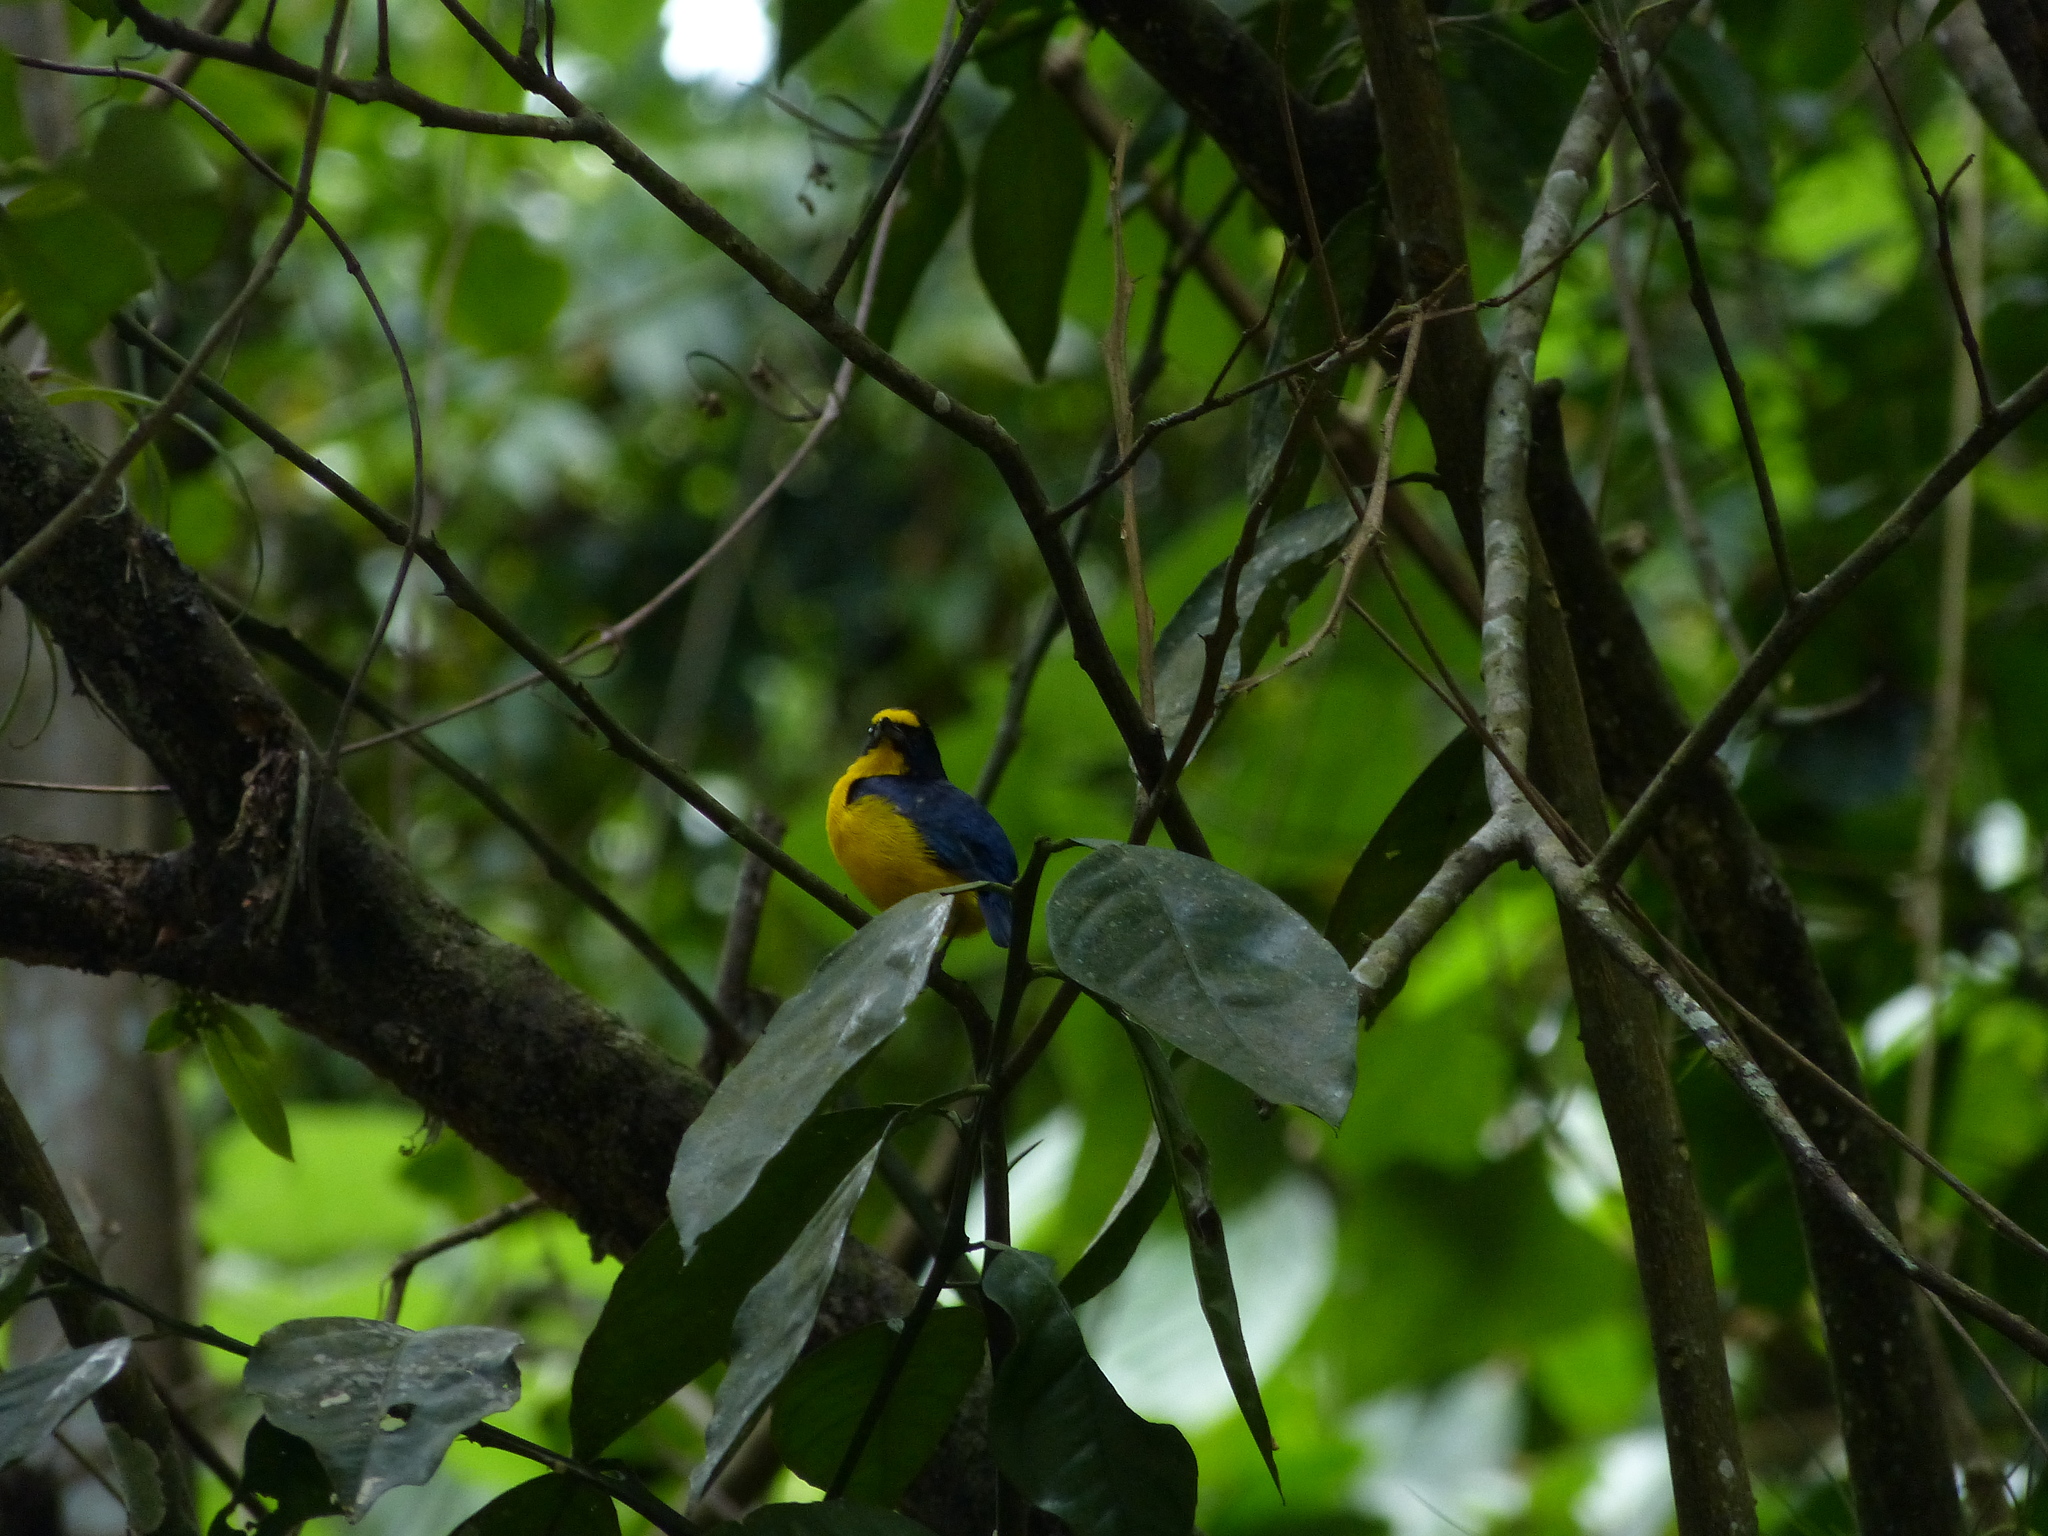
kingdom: Animalia
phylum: Chordata
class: Aves
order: Passeriformes
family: Fringillidae
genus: Euphonia
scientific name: Euphonia hirundinacea
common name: Yellow-throated euphonia
